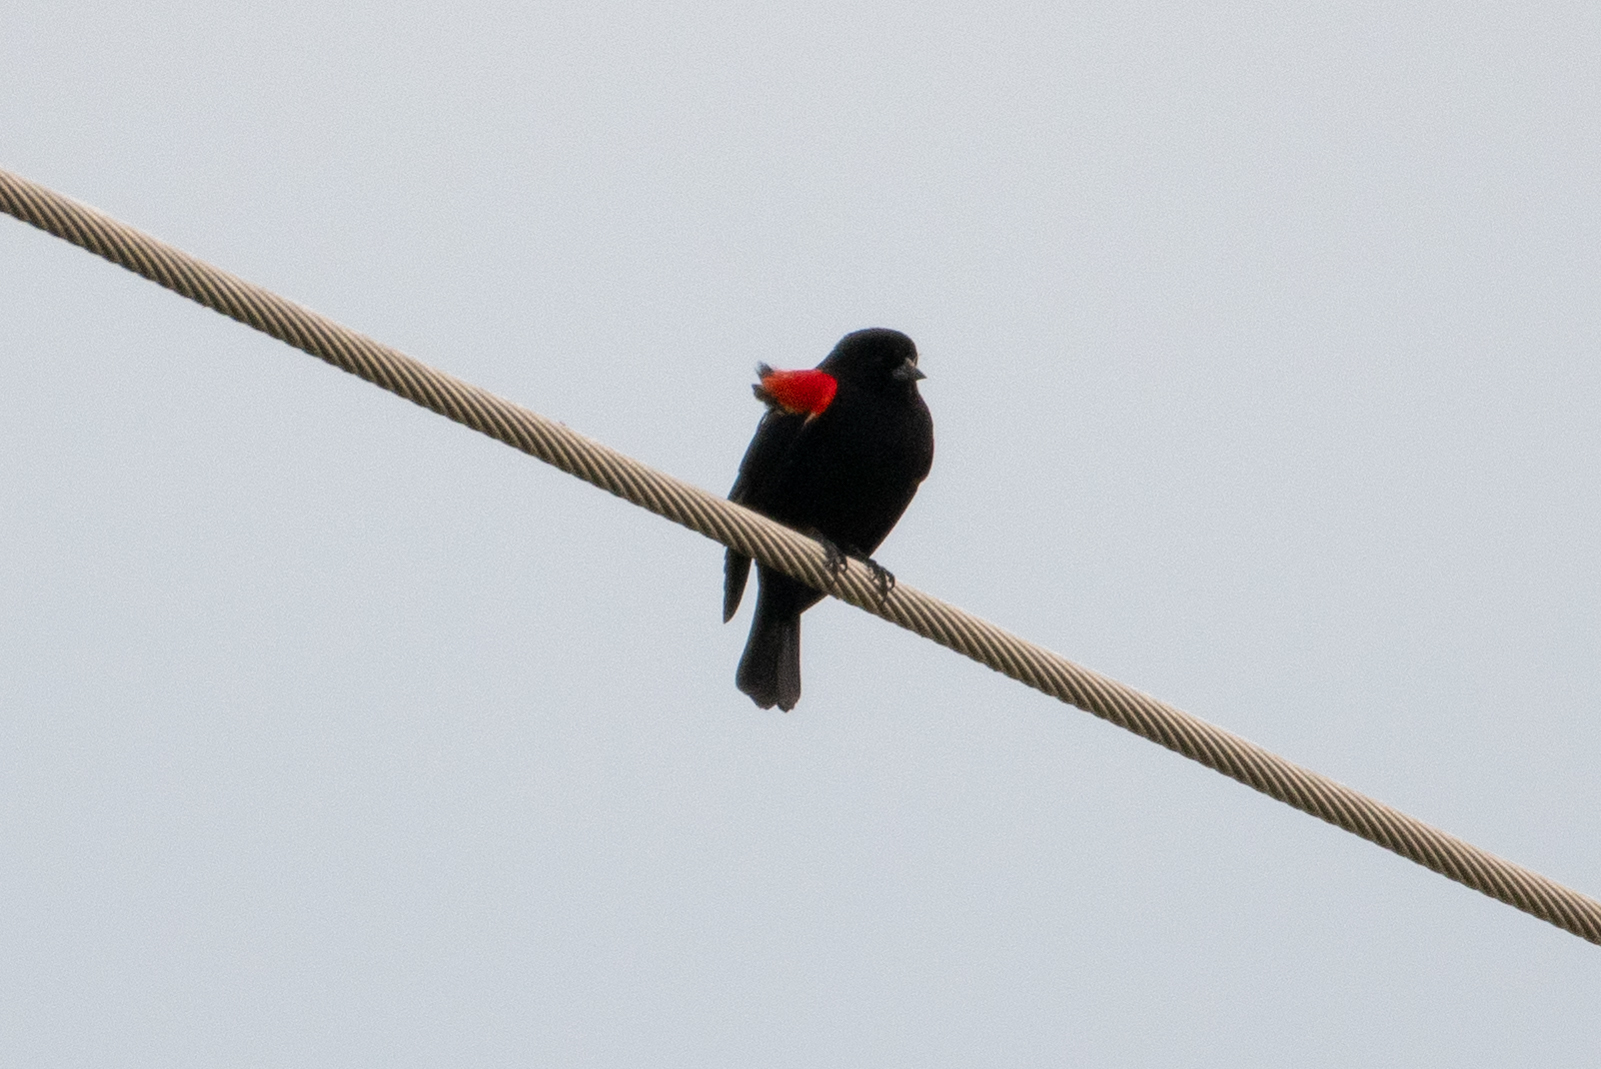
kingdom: Animalia
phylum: Chordata
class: Aves
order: Passeriformes
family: Icteridae
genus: Agelaius
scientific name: Agelaius phoeniceus
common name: Red-winged blackbird
